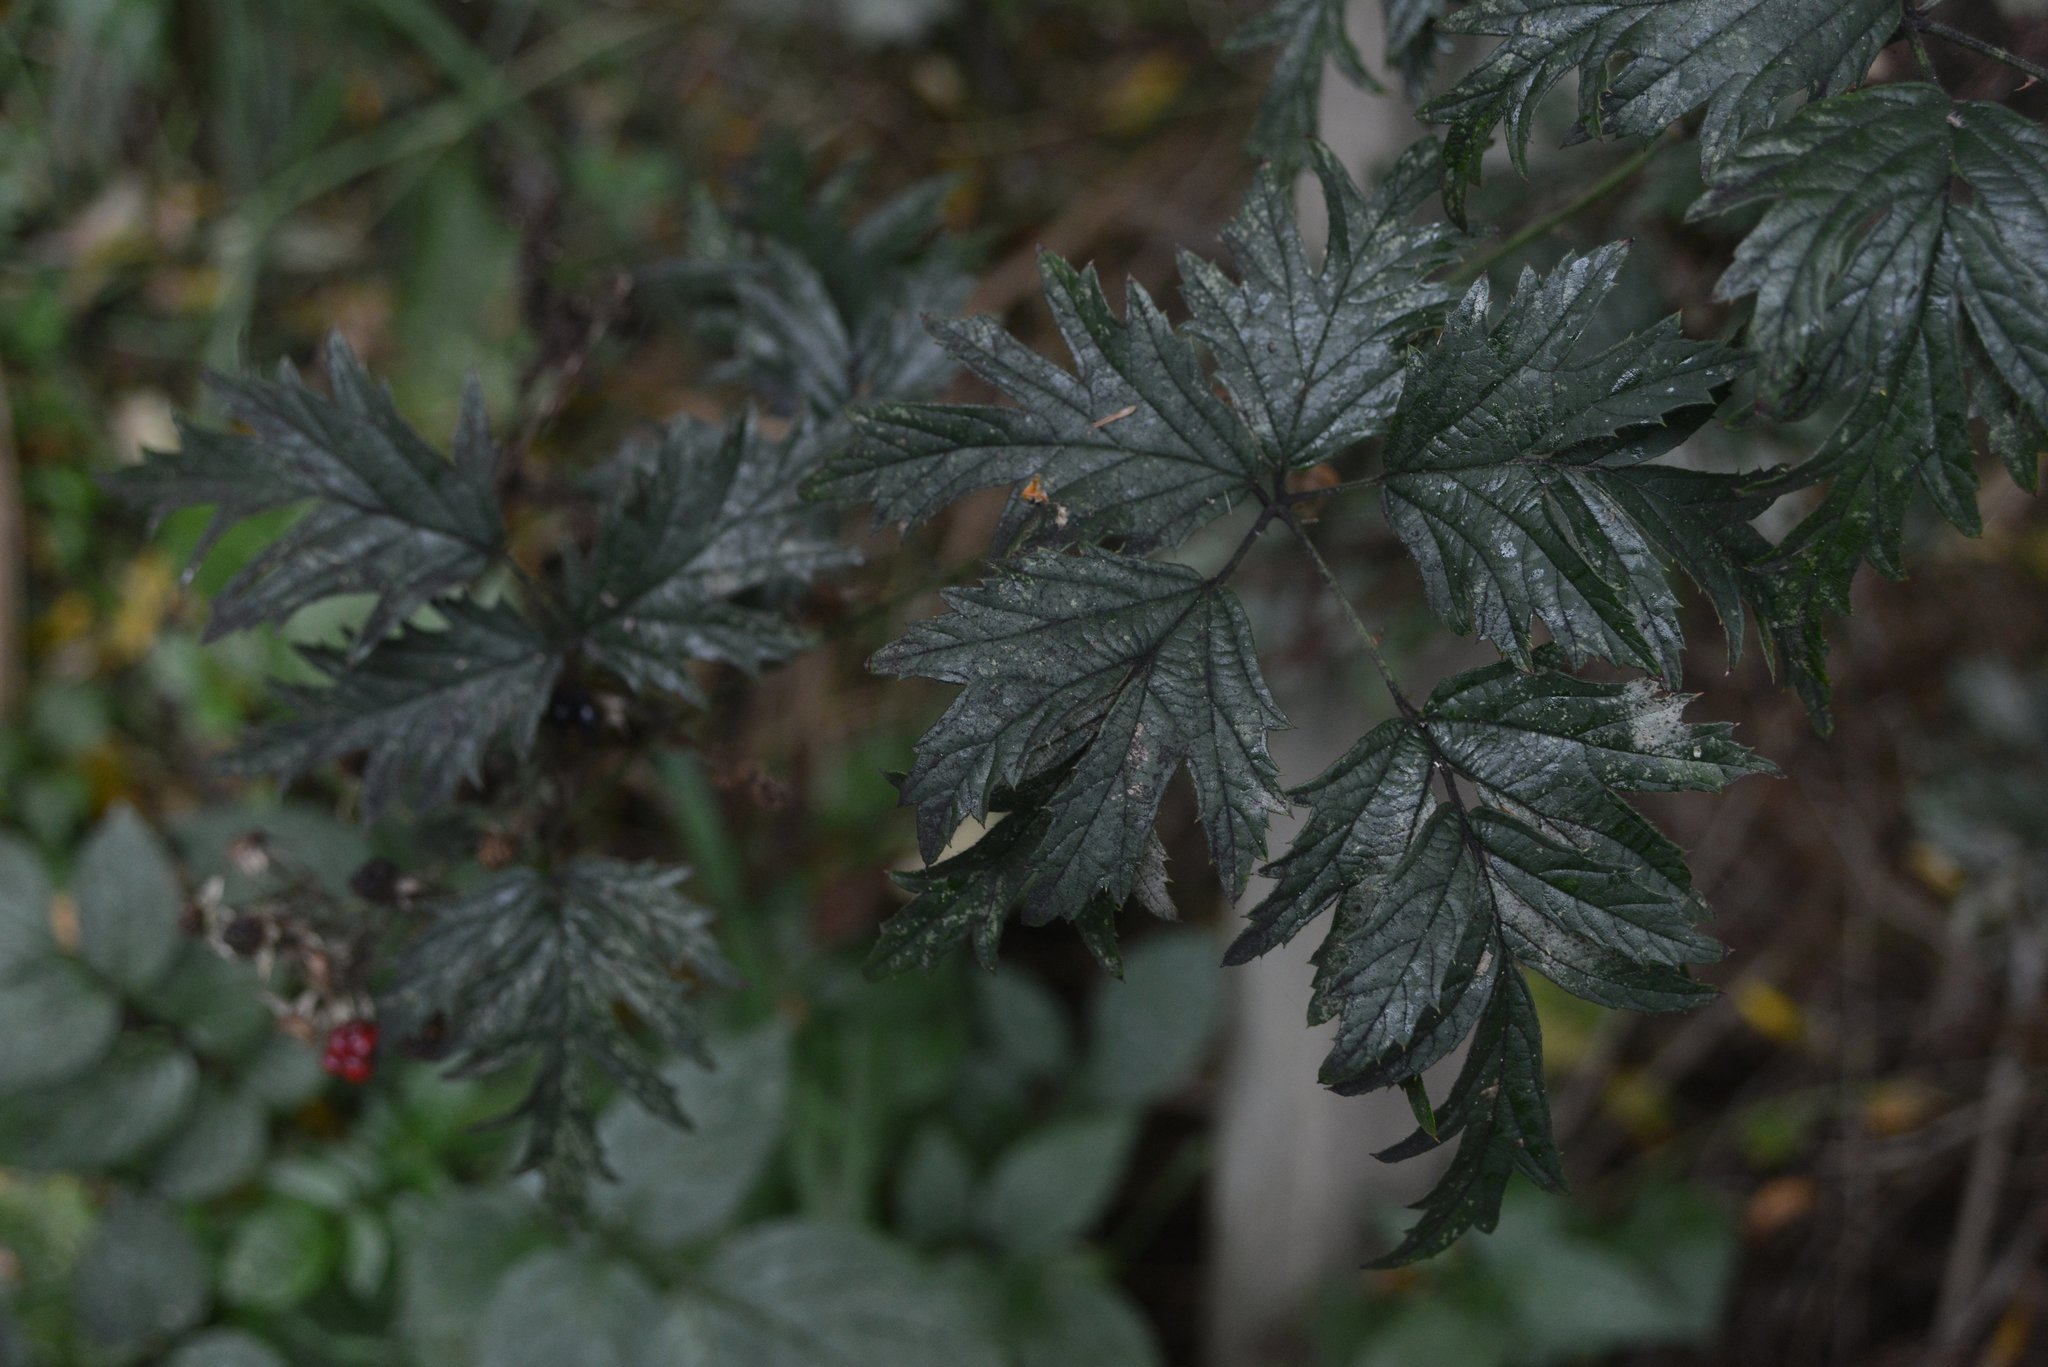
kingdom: Plantae
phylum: Tracheophyta
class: Magnoliopsida
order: Rosales
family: Rosaceae
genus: Rubus
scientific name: Rubus laciniatus
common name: Evergreen blackberry
